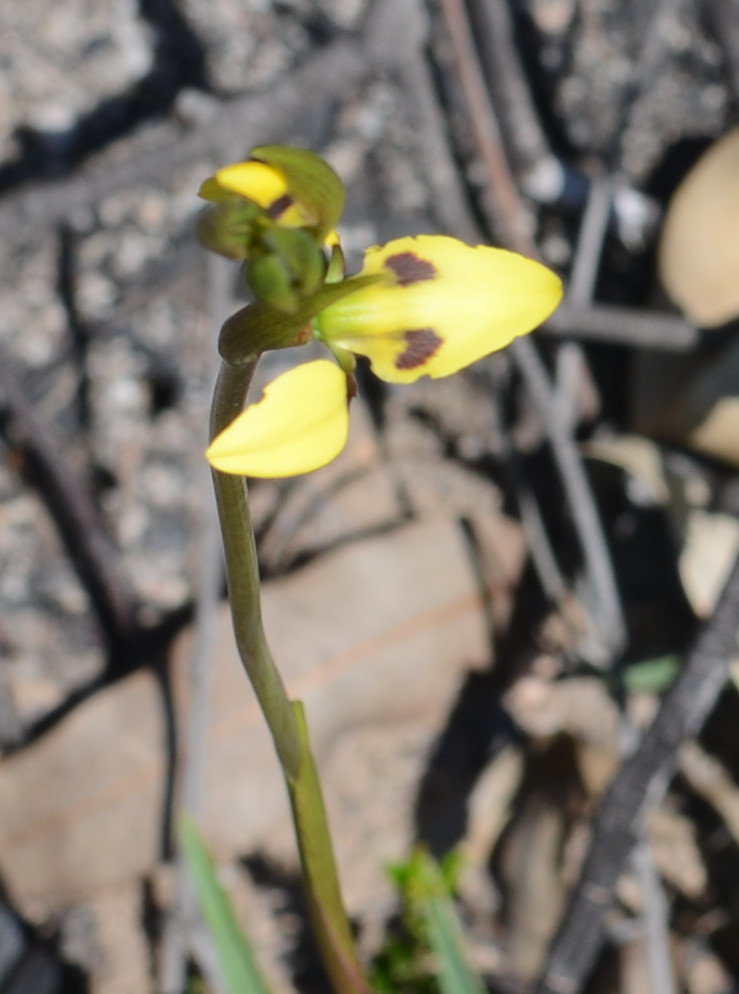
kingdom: Plantae
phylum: Tracheophyta
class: Liliopsida
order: Asparagales
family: Orchidaceae
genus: Diuris
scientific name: Diuris sulphurea
